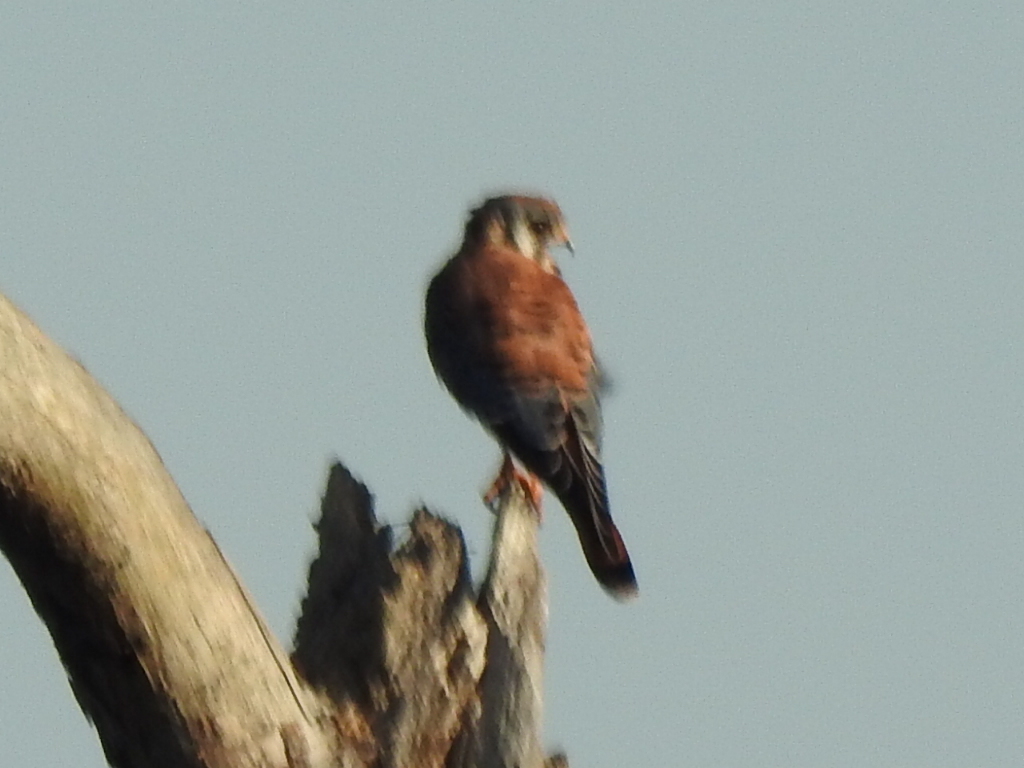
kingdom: Animalia
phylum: Chordata
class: Aves
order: Falconiformes
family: Falconidae
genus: Falco
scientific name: Falco sparverius
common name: American kestrel
